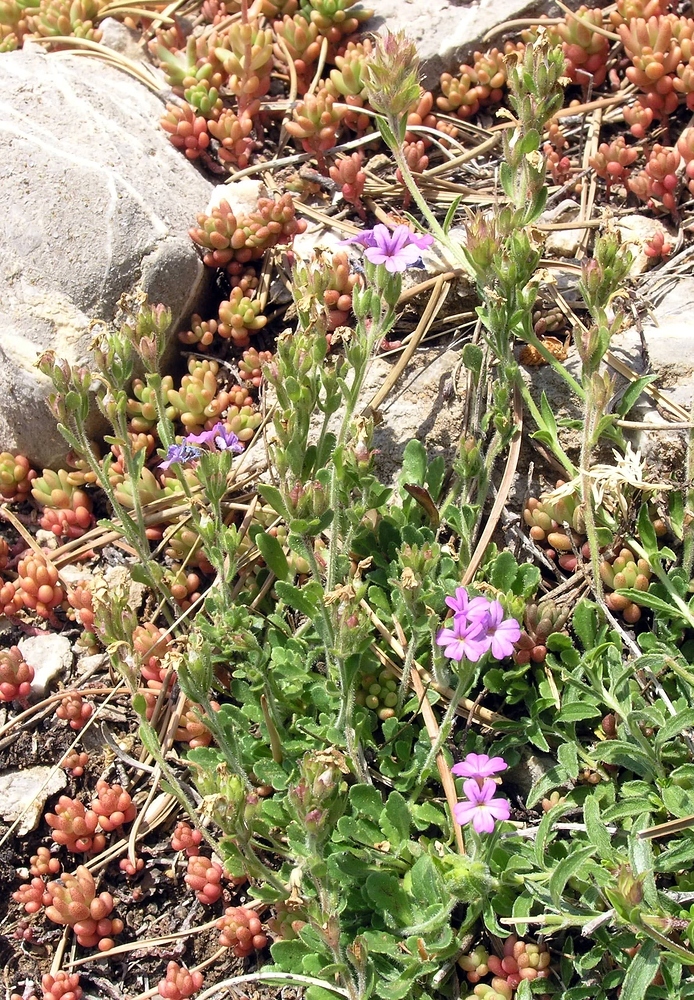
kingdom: Plantae
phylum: Tracheophyta
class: Magnoliopsida
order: Lamiales
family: Plantaginaceae
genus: Erinus
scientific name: Erinus alpinus
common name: Fairy foxglove
